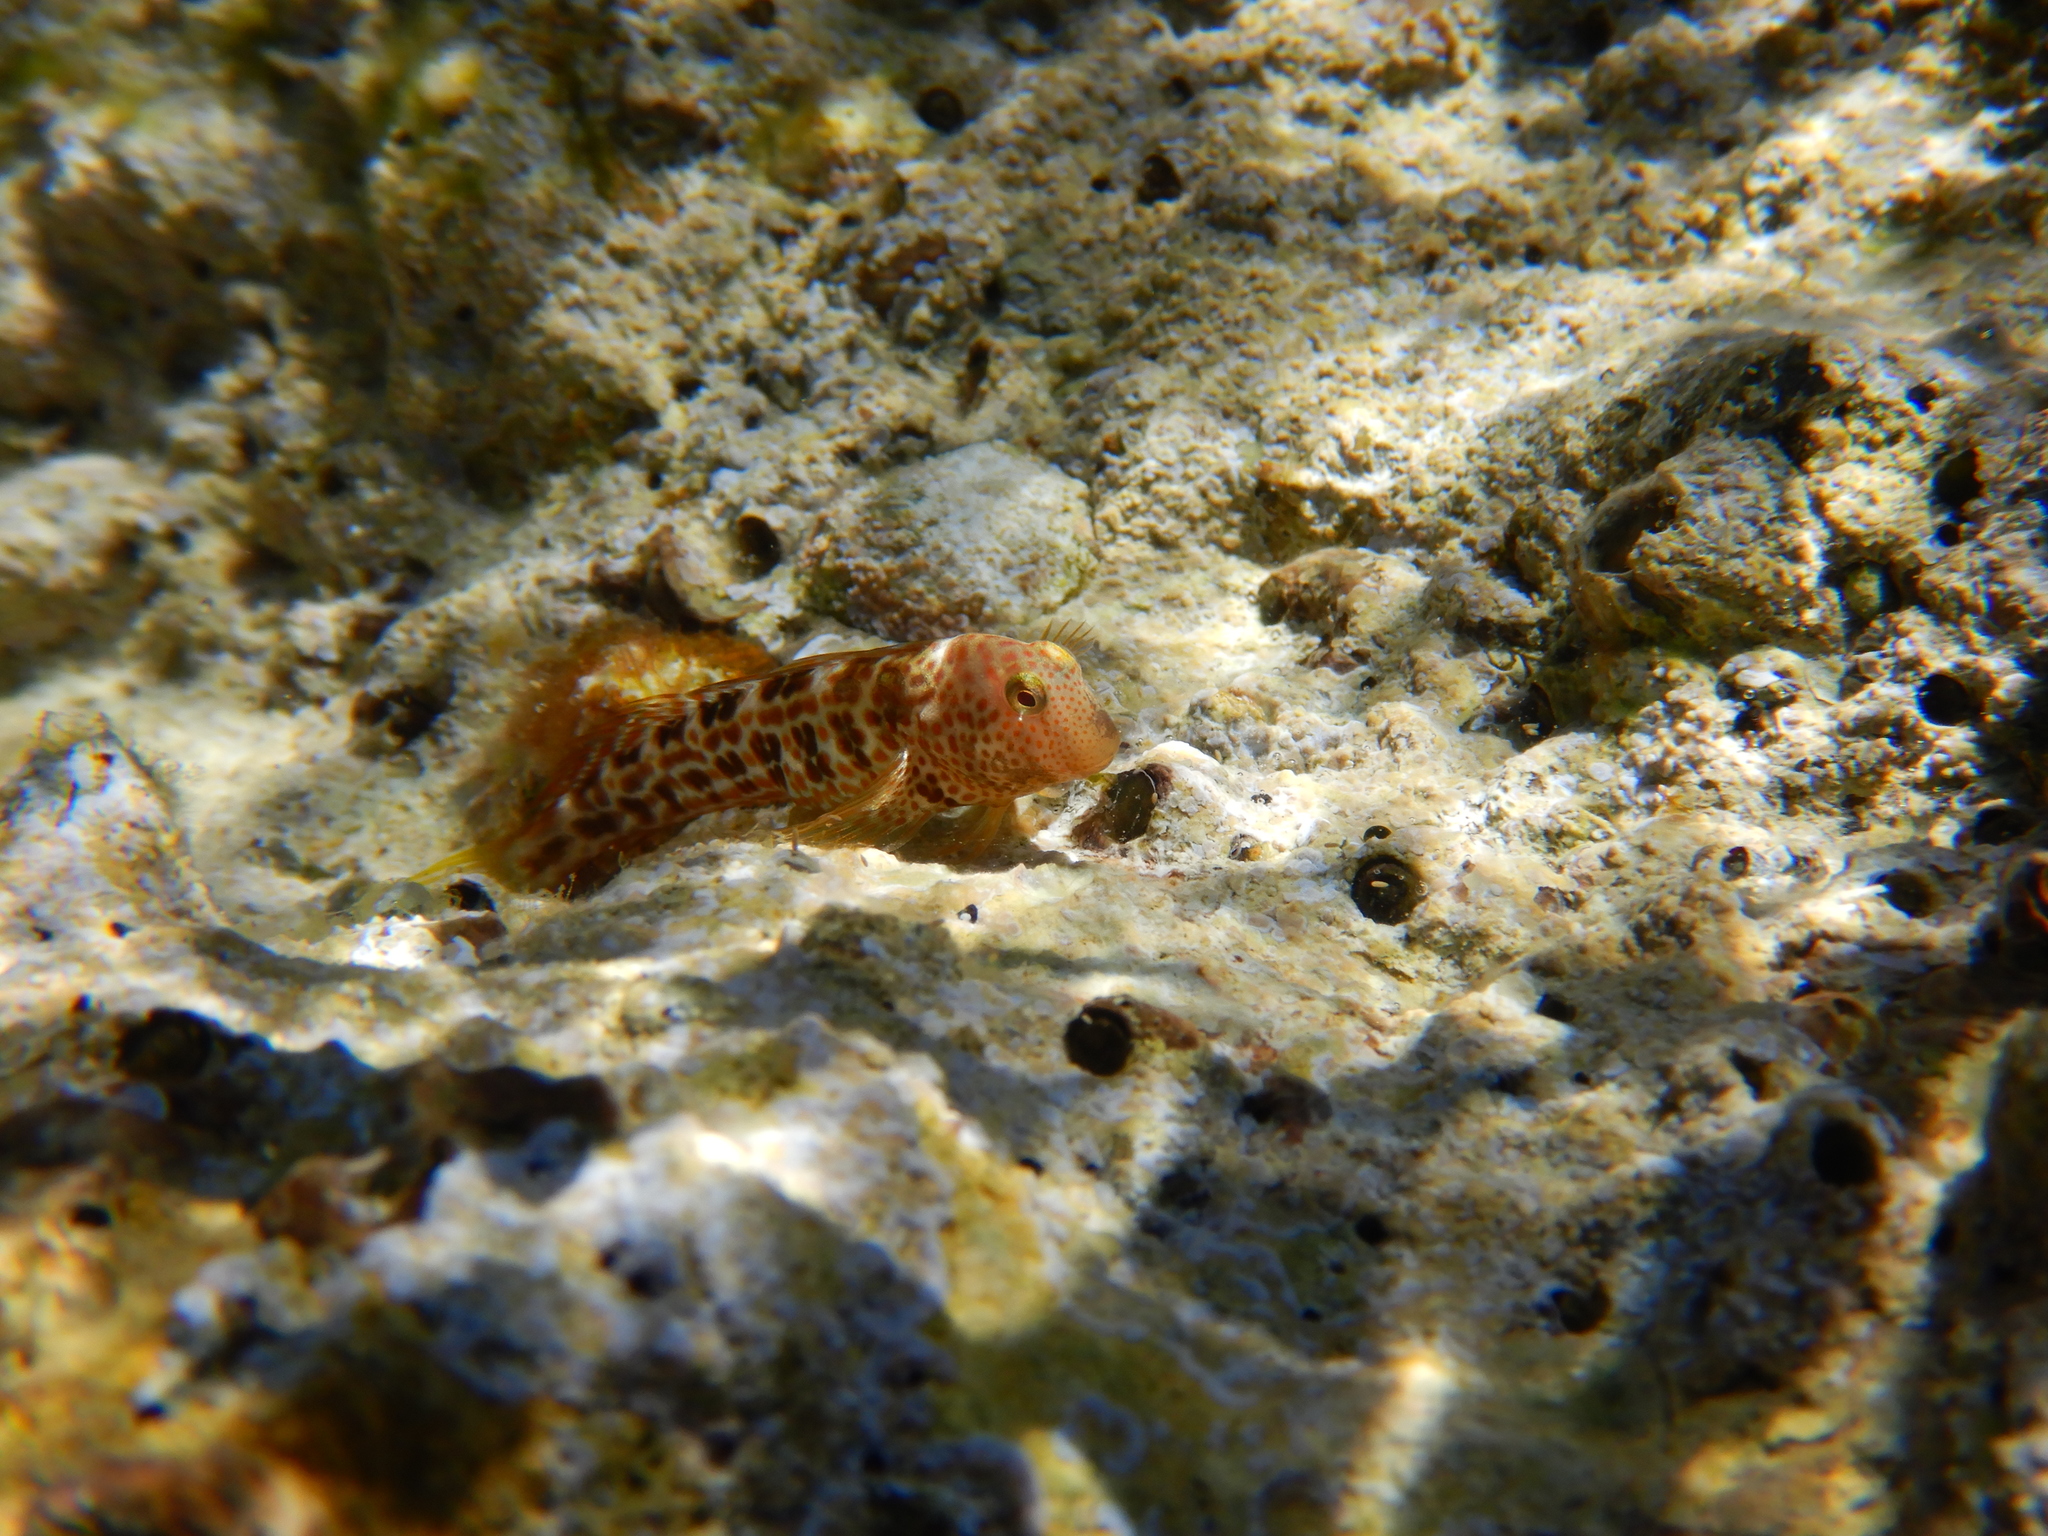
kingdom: Animalia
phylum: Chordata
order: Perciformes
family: Blenniidae
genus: Microlipophrys
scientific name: Microlipophrys canevae
